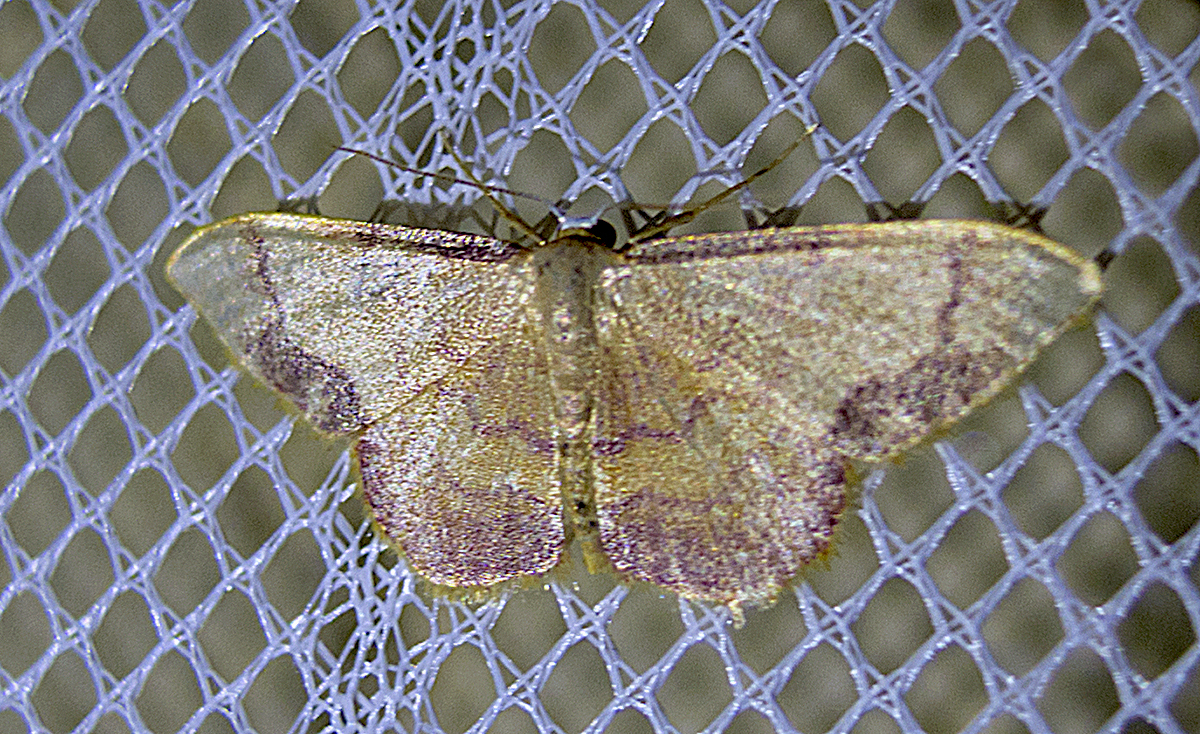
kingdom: Animalia
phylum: Arthropoda
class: Insecta
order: Lepidoptera
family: Geometridae
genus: Idaea
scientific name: Idaea ostrinaria
